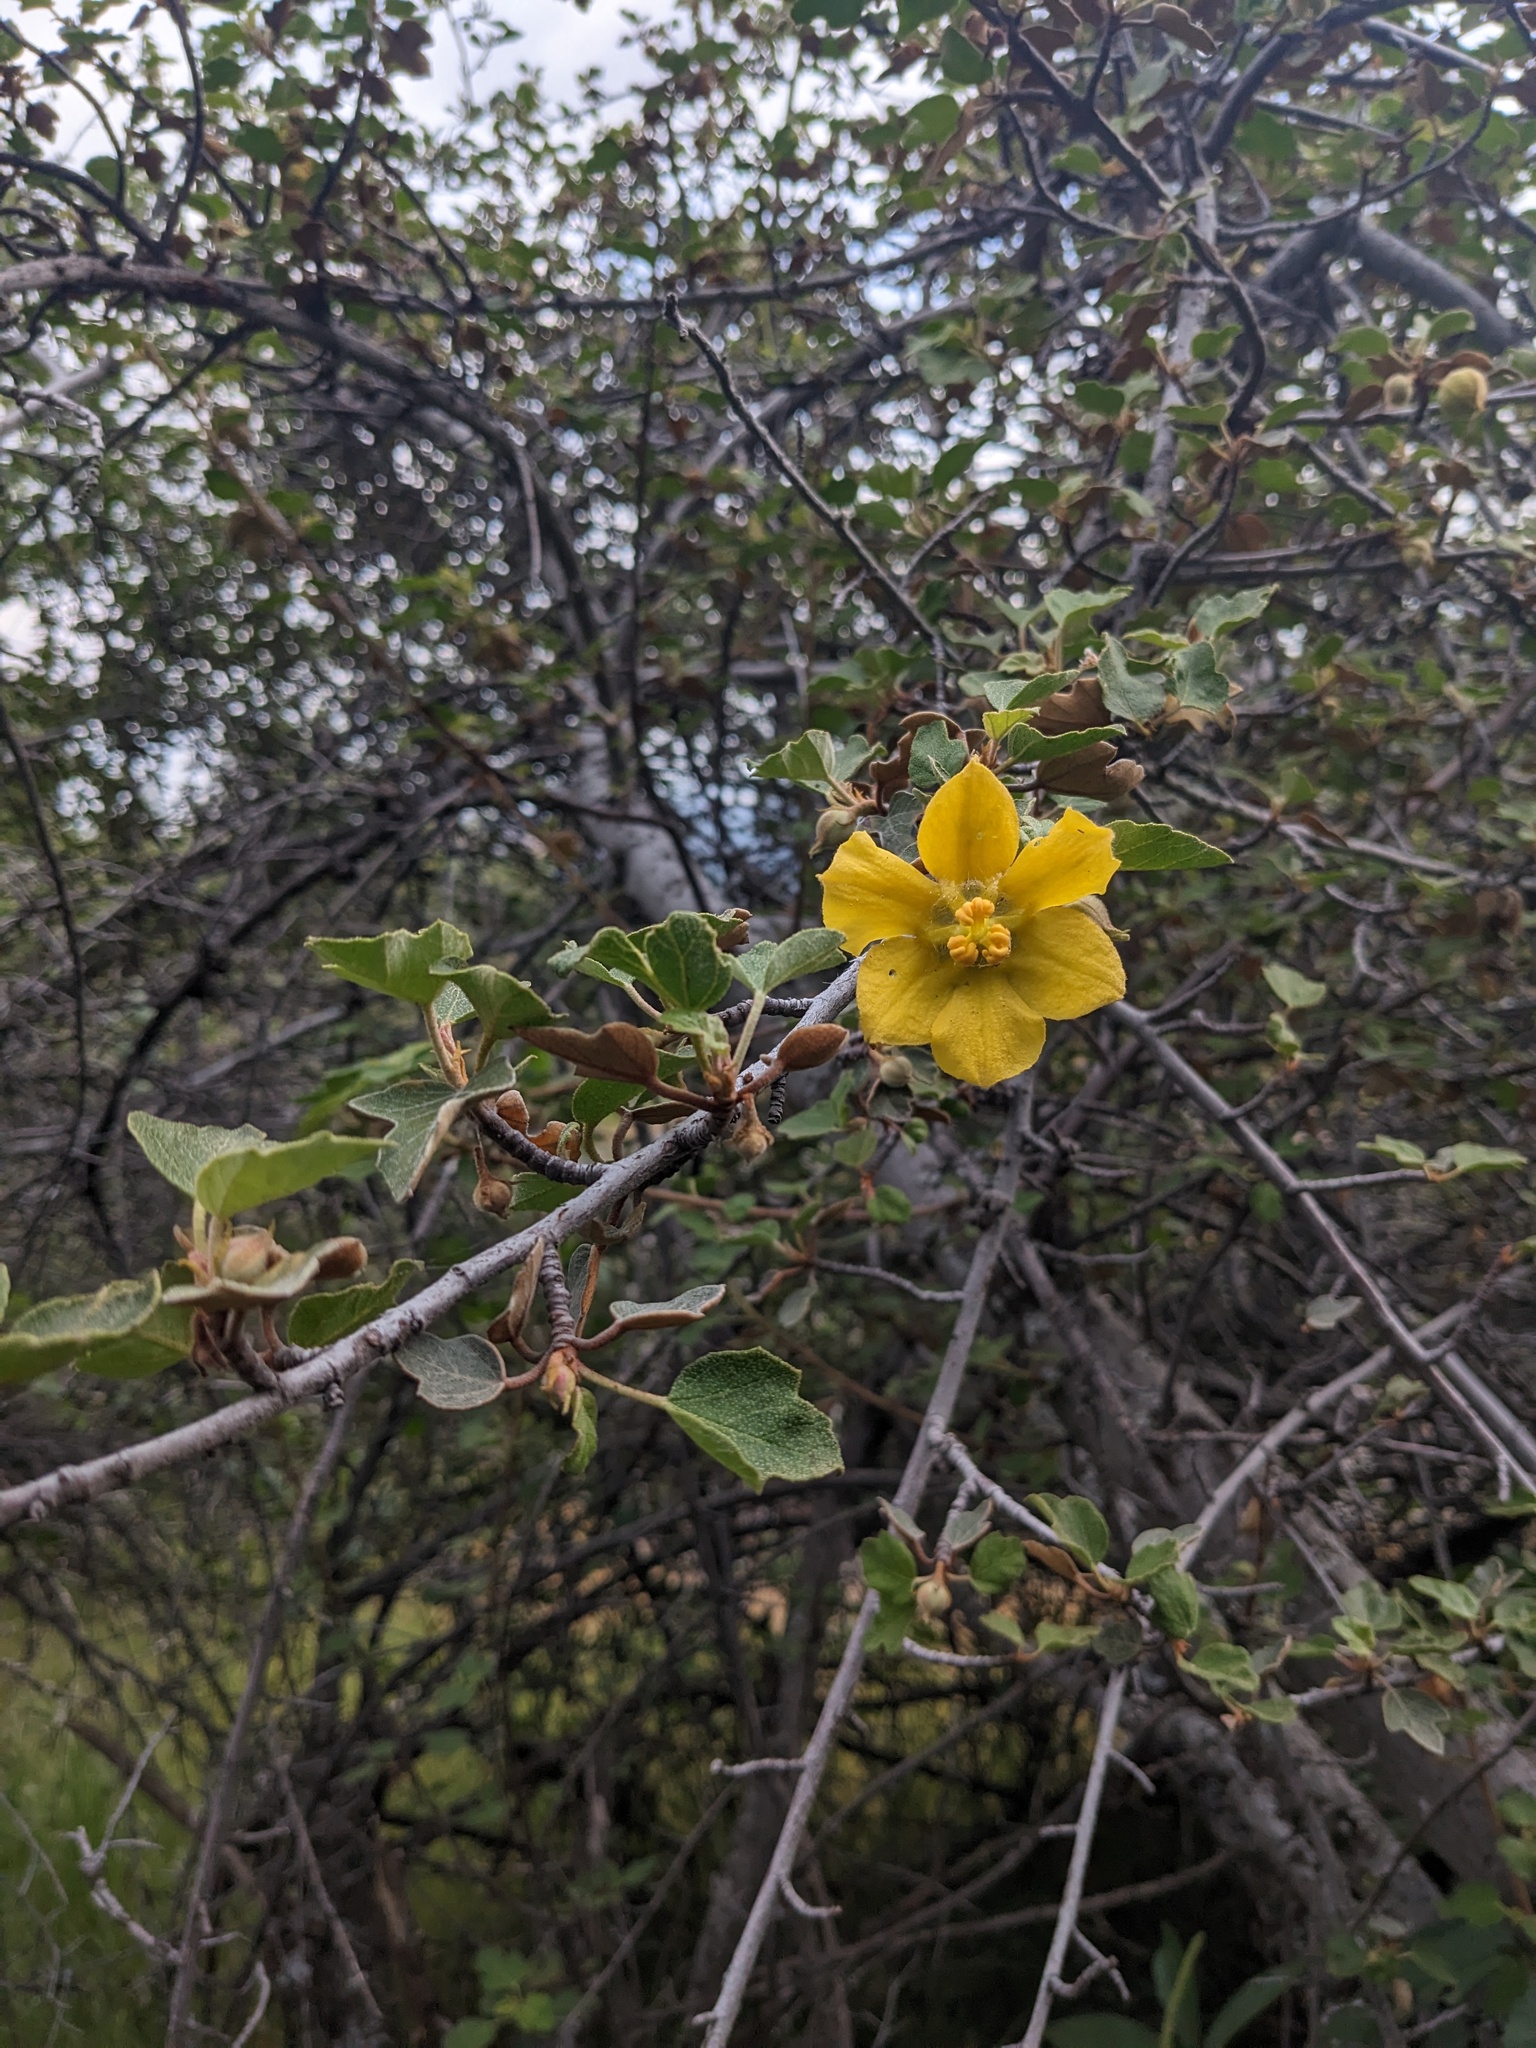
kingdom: Plantae
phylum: Tracheophyta
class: Magnoliopsida
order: Malvales
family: Malvaceae
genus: Fremontodendron
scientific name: Fremontodendron californicum
